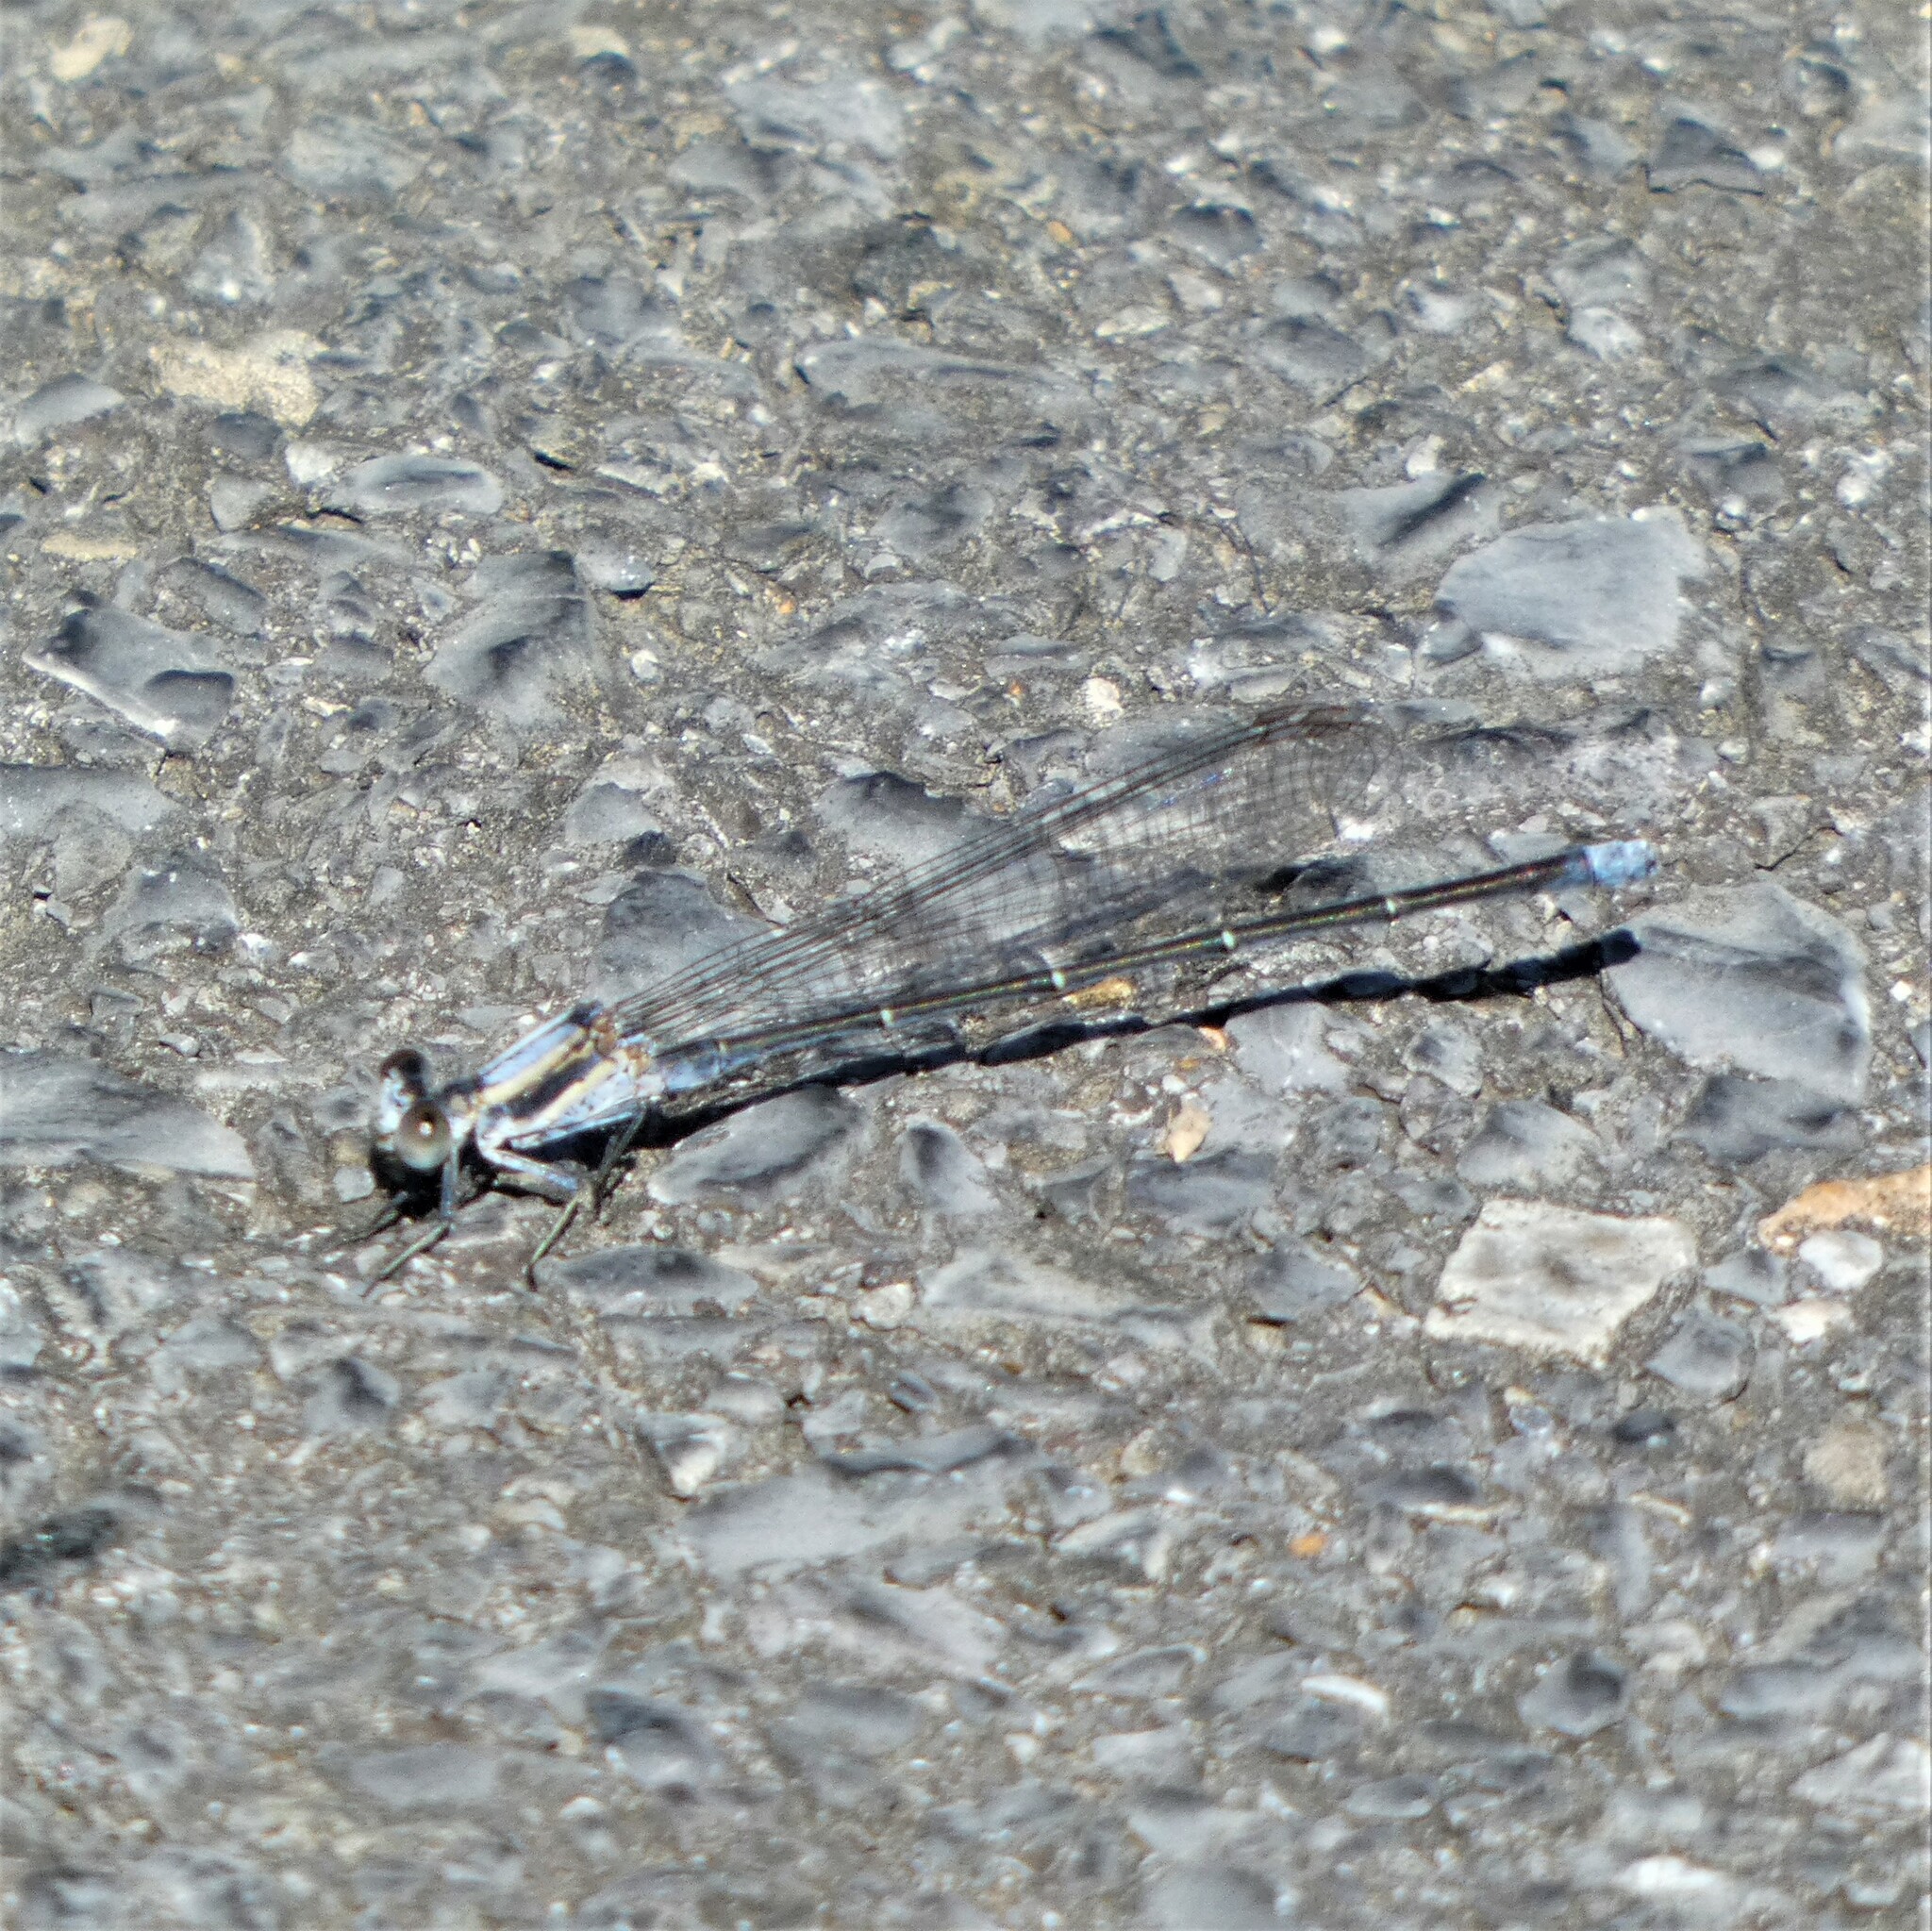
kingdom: Animalia
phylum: Arthropoda
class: Insecta
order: Odonata
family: Coenagrionidae
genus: Argia
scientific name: Argia moesta
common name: Powdered dancer
